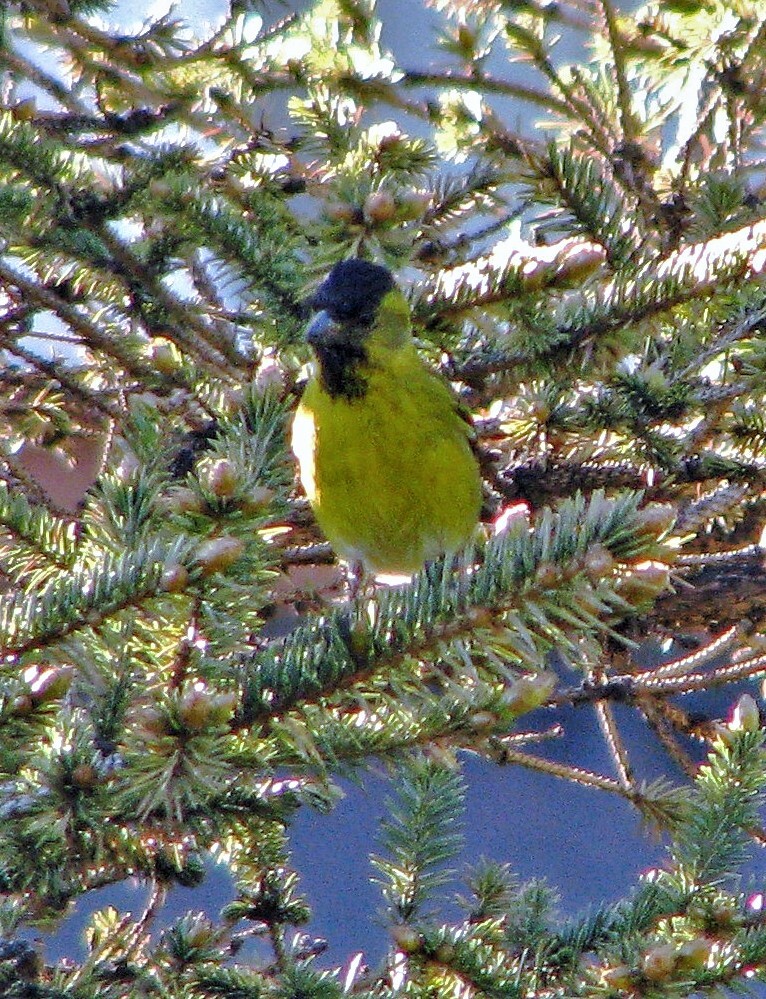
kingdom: Animalia
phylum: Chordata
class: Aves
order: Passeriformes
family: Fringillidae
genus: Spinus
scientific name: Spinus barbatus
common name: Black-chinned siskin
